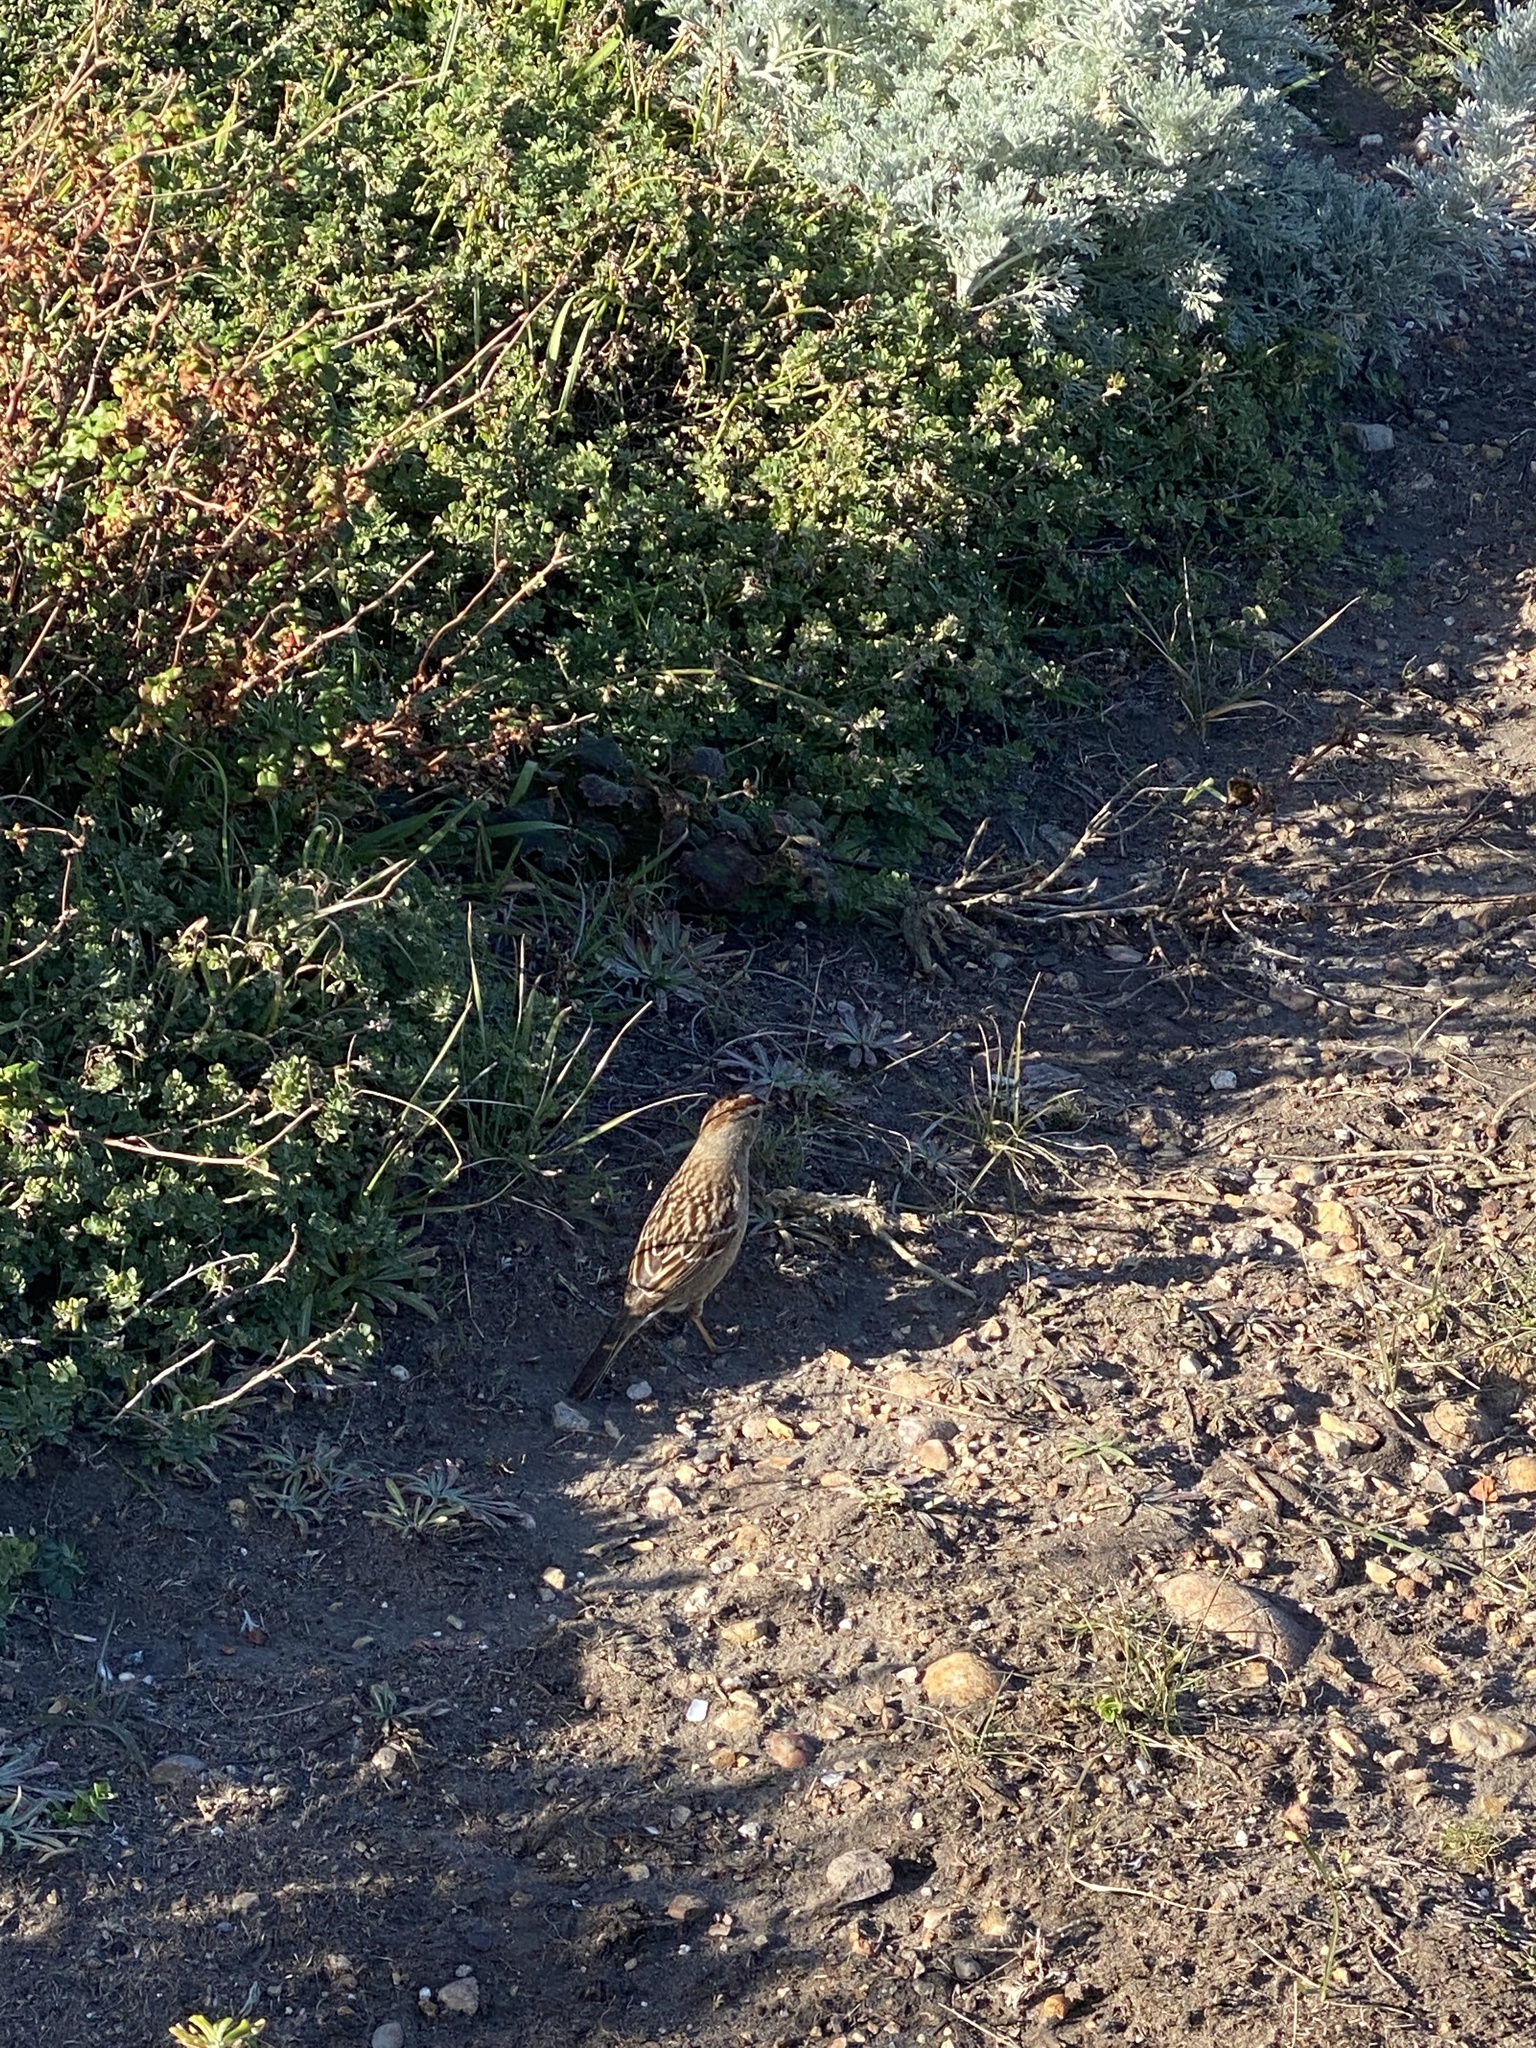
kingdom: Animalia
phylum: Chordata
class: Aves
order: Passeriformes
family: Passerellidae
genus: Zonotrichia
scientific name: Zonotrichia leucophrys
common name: White-crowned sparrow
